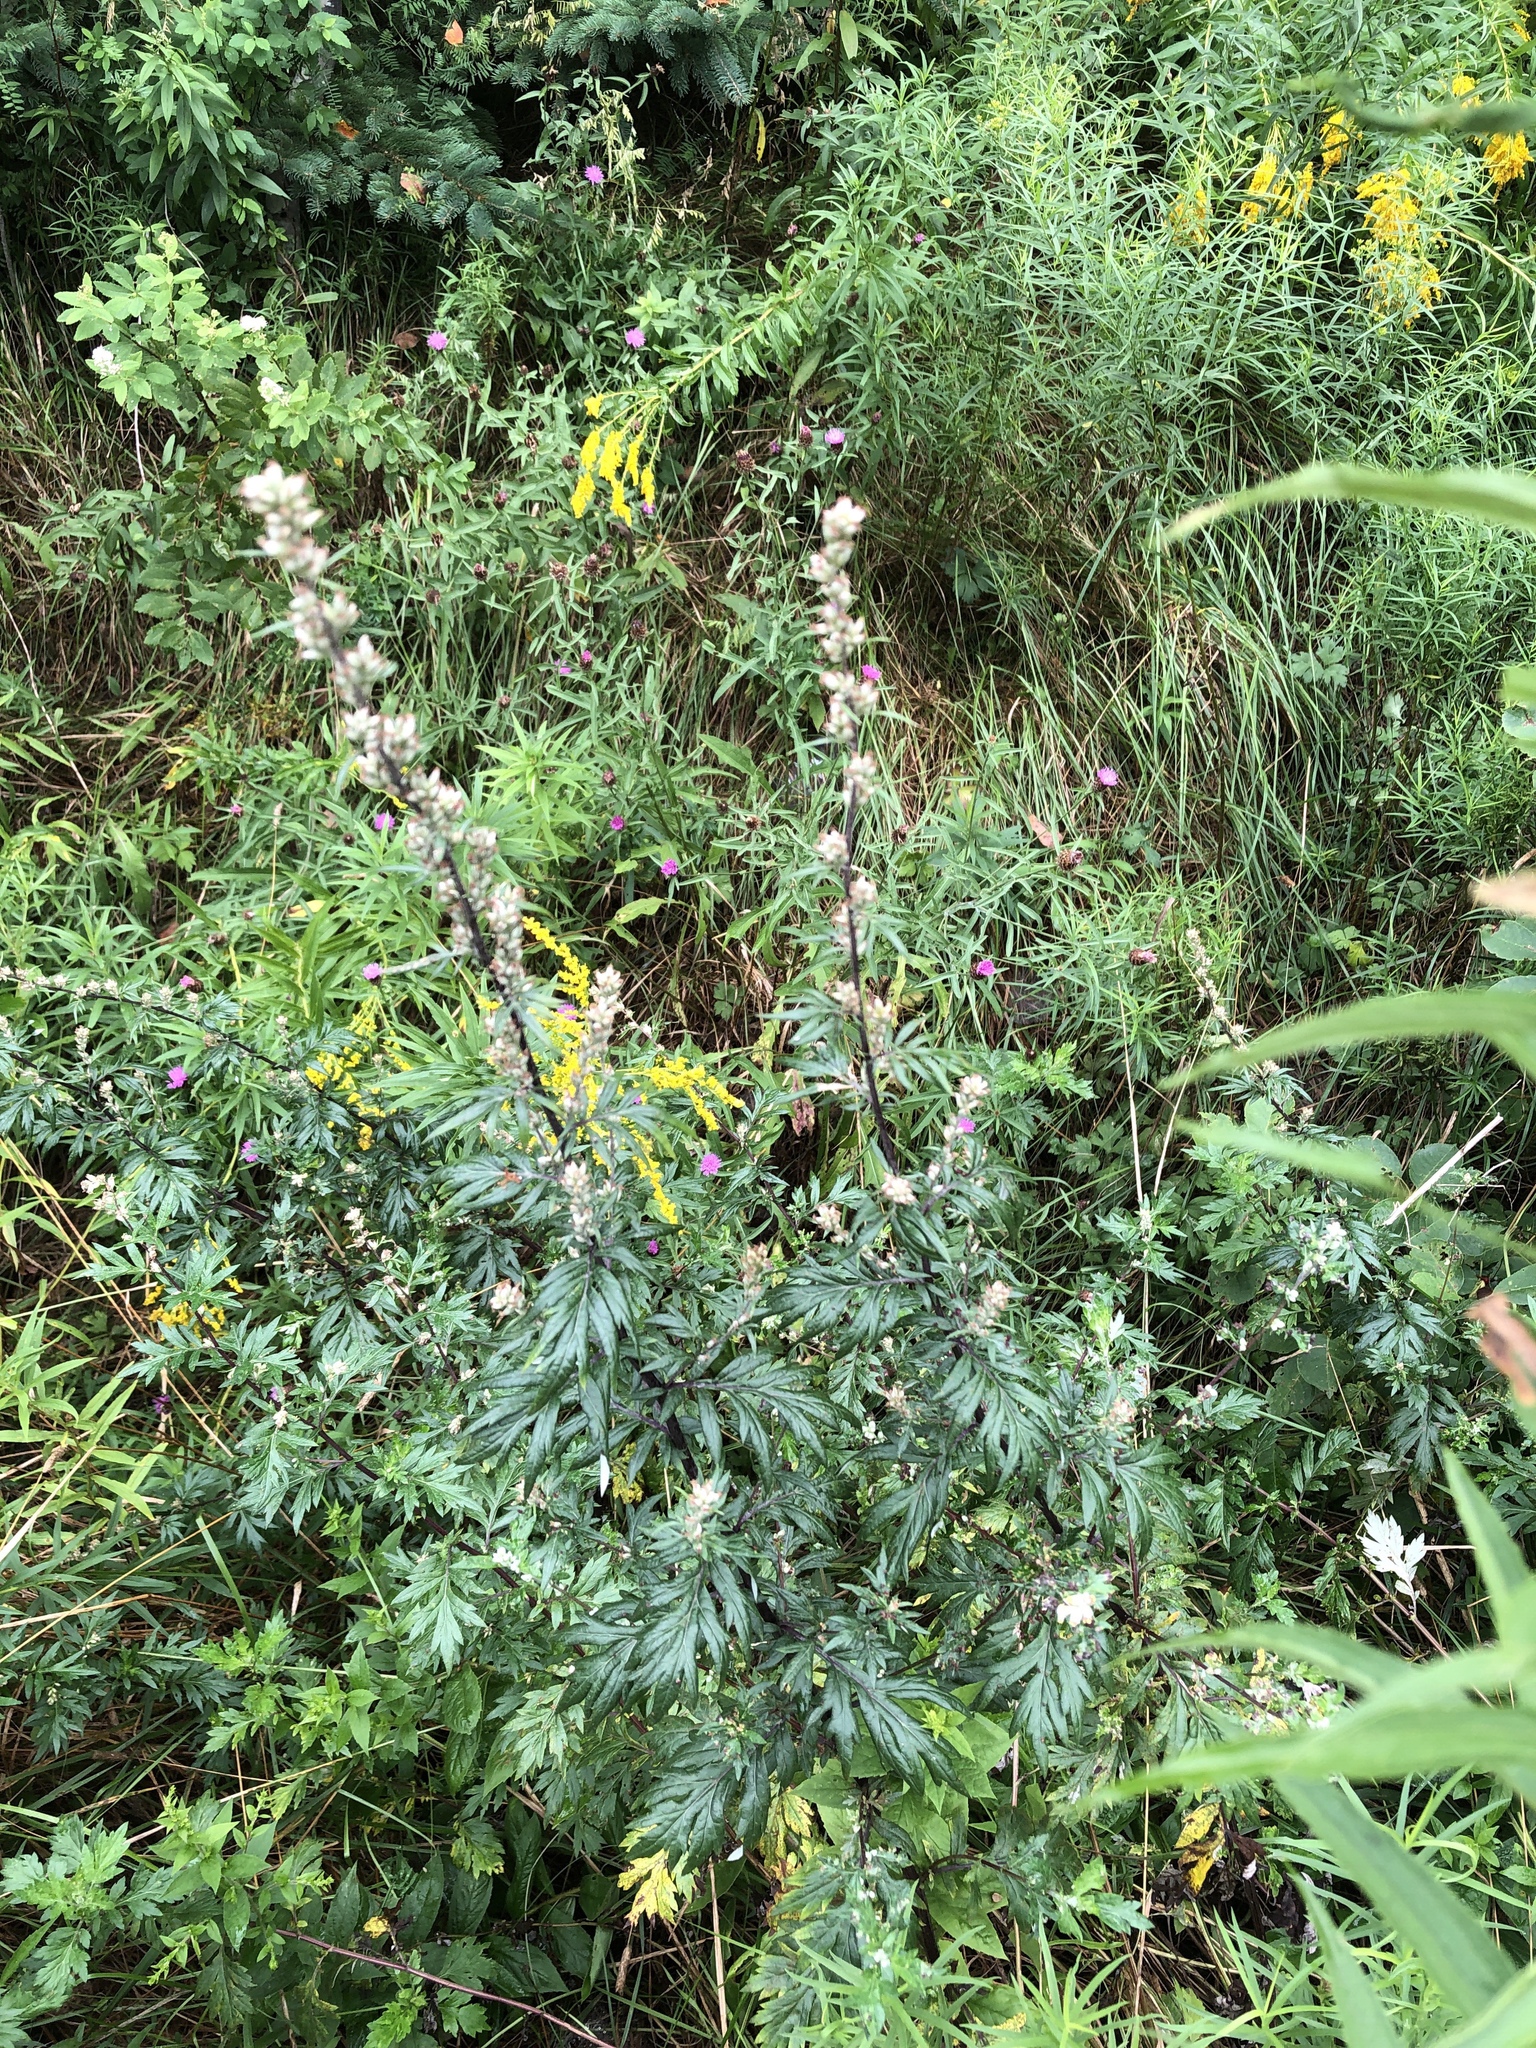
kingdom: Plantae
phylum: Tracheophyta
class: Magnoliopsida
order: Asterales
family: Asteraceae
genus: Artemisia
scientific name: Artemisia vulgaris
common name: Mugwort
